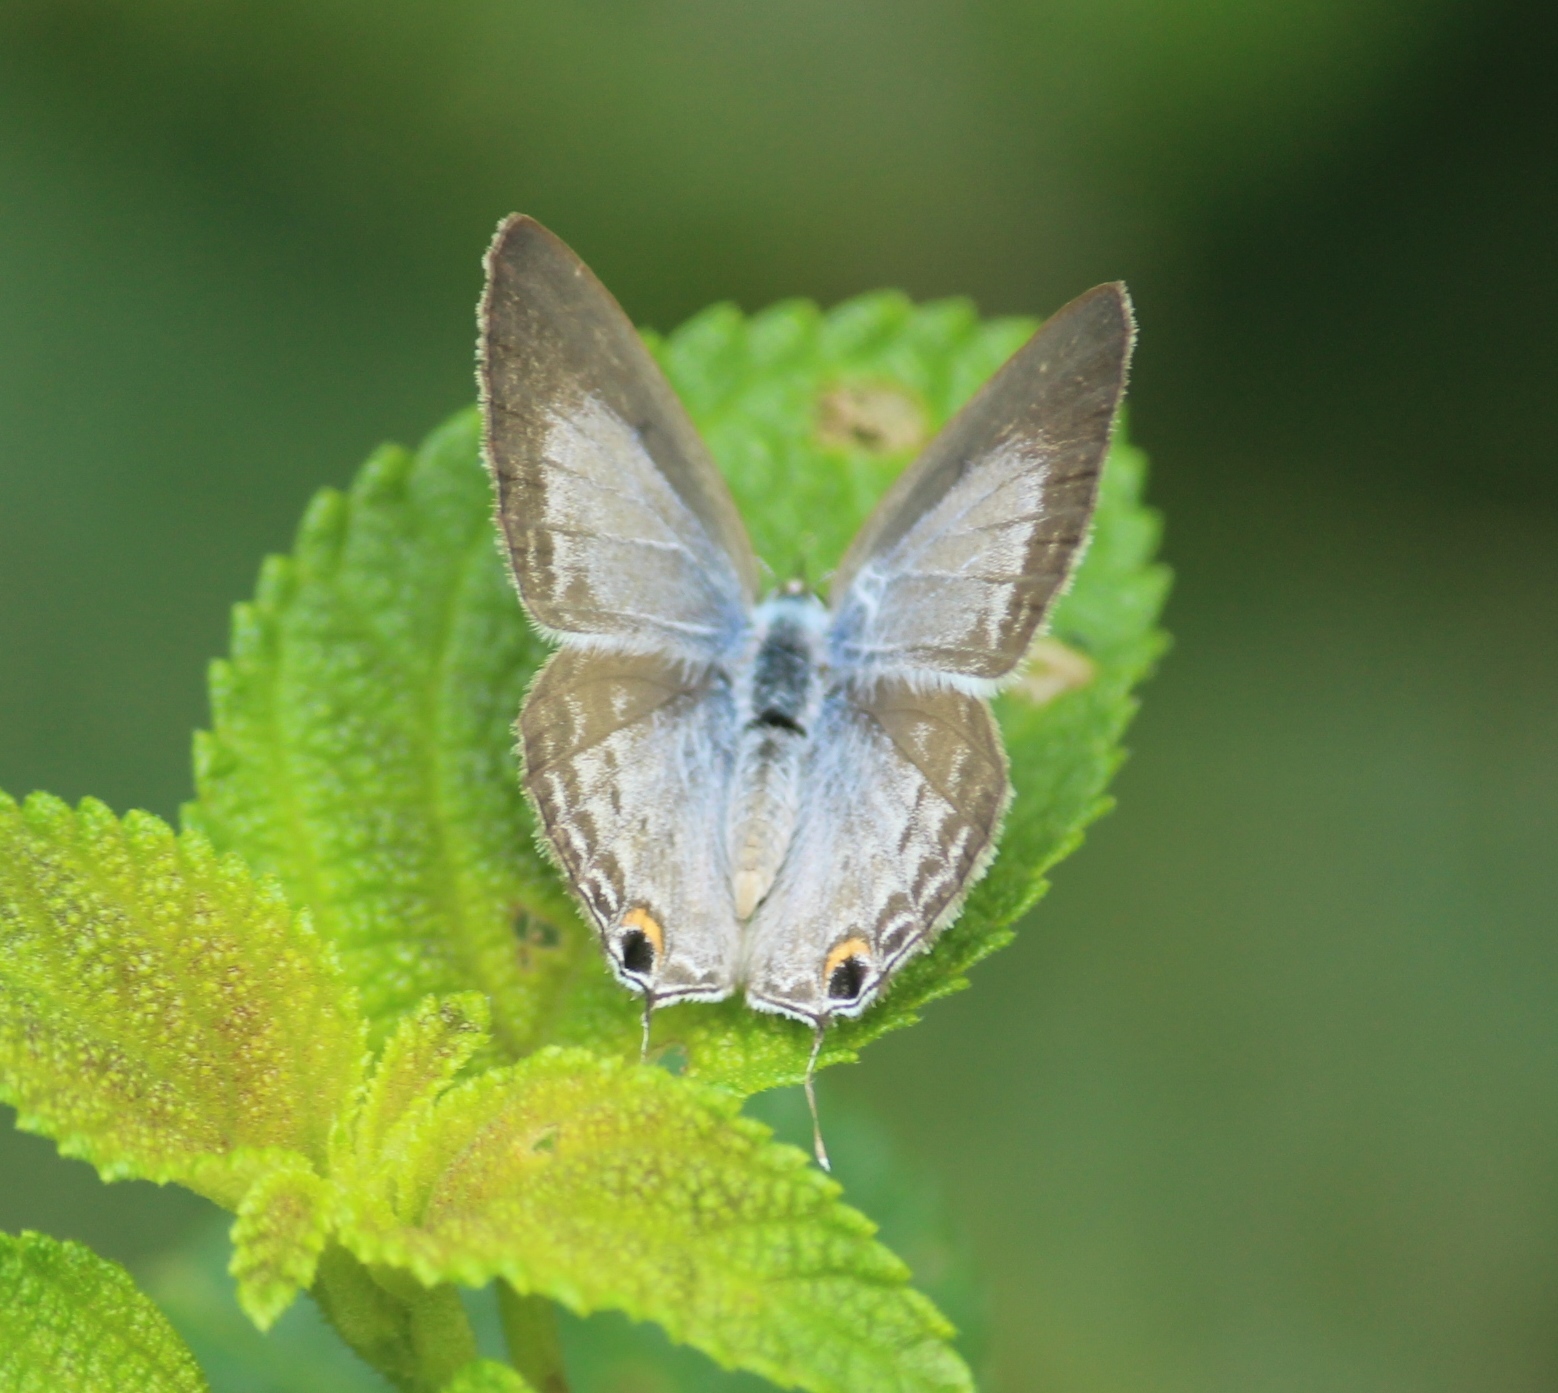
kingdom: Animalia
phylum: Arthropoda
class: Insecta
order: Lepidoptera
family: Lycaenidae
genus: Catochrysops
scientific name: Catochrysops strabo
